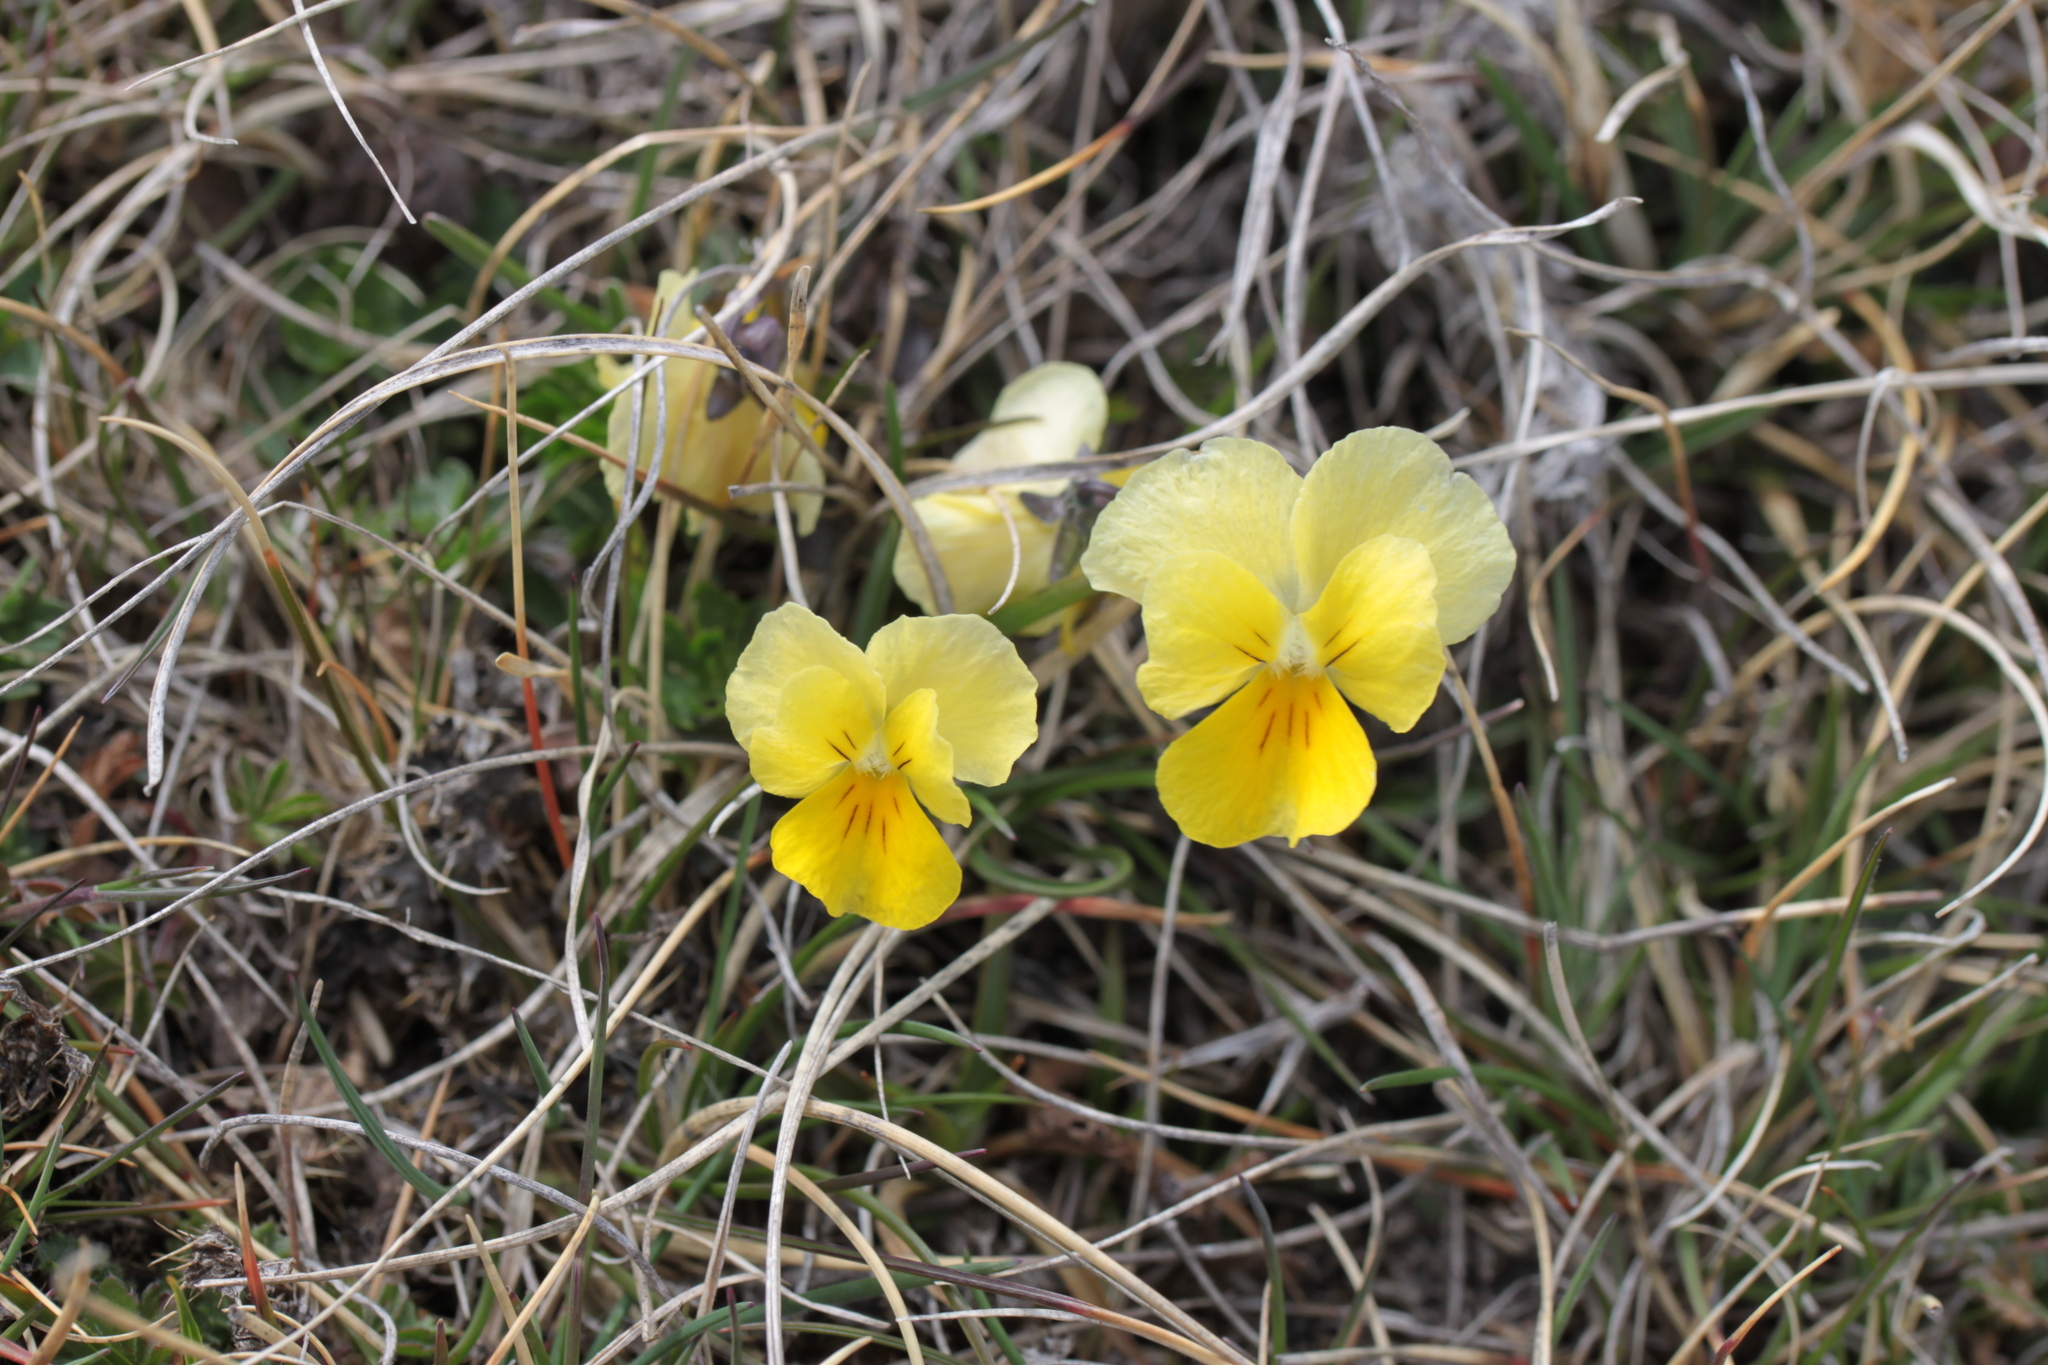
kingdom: Plantae
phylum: Tracheophyta
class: Magnoliopsida
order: Malpighiales
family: Violaceae
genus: Viola
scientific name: Viola eugeniae
